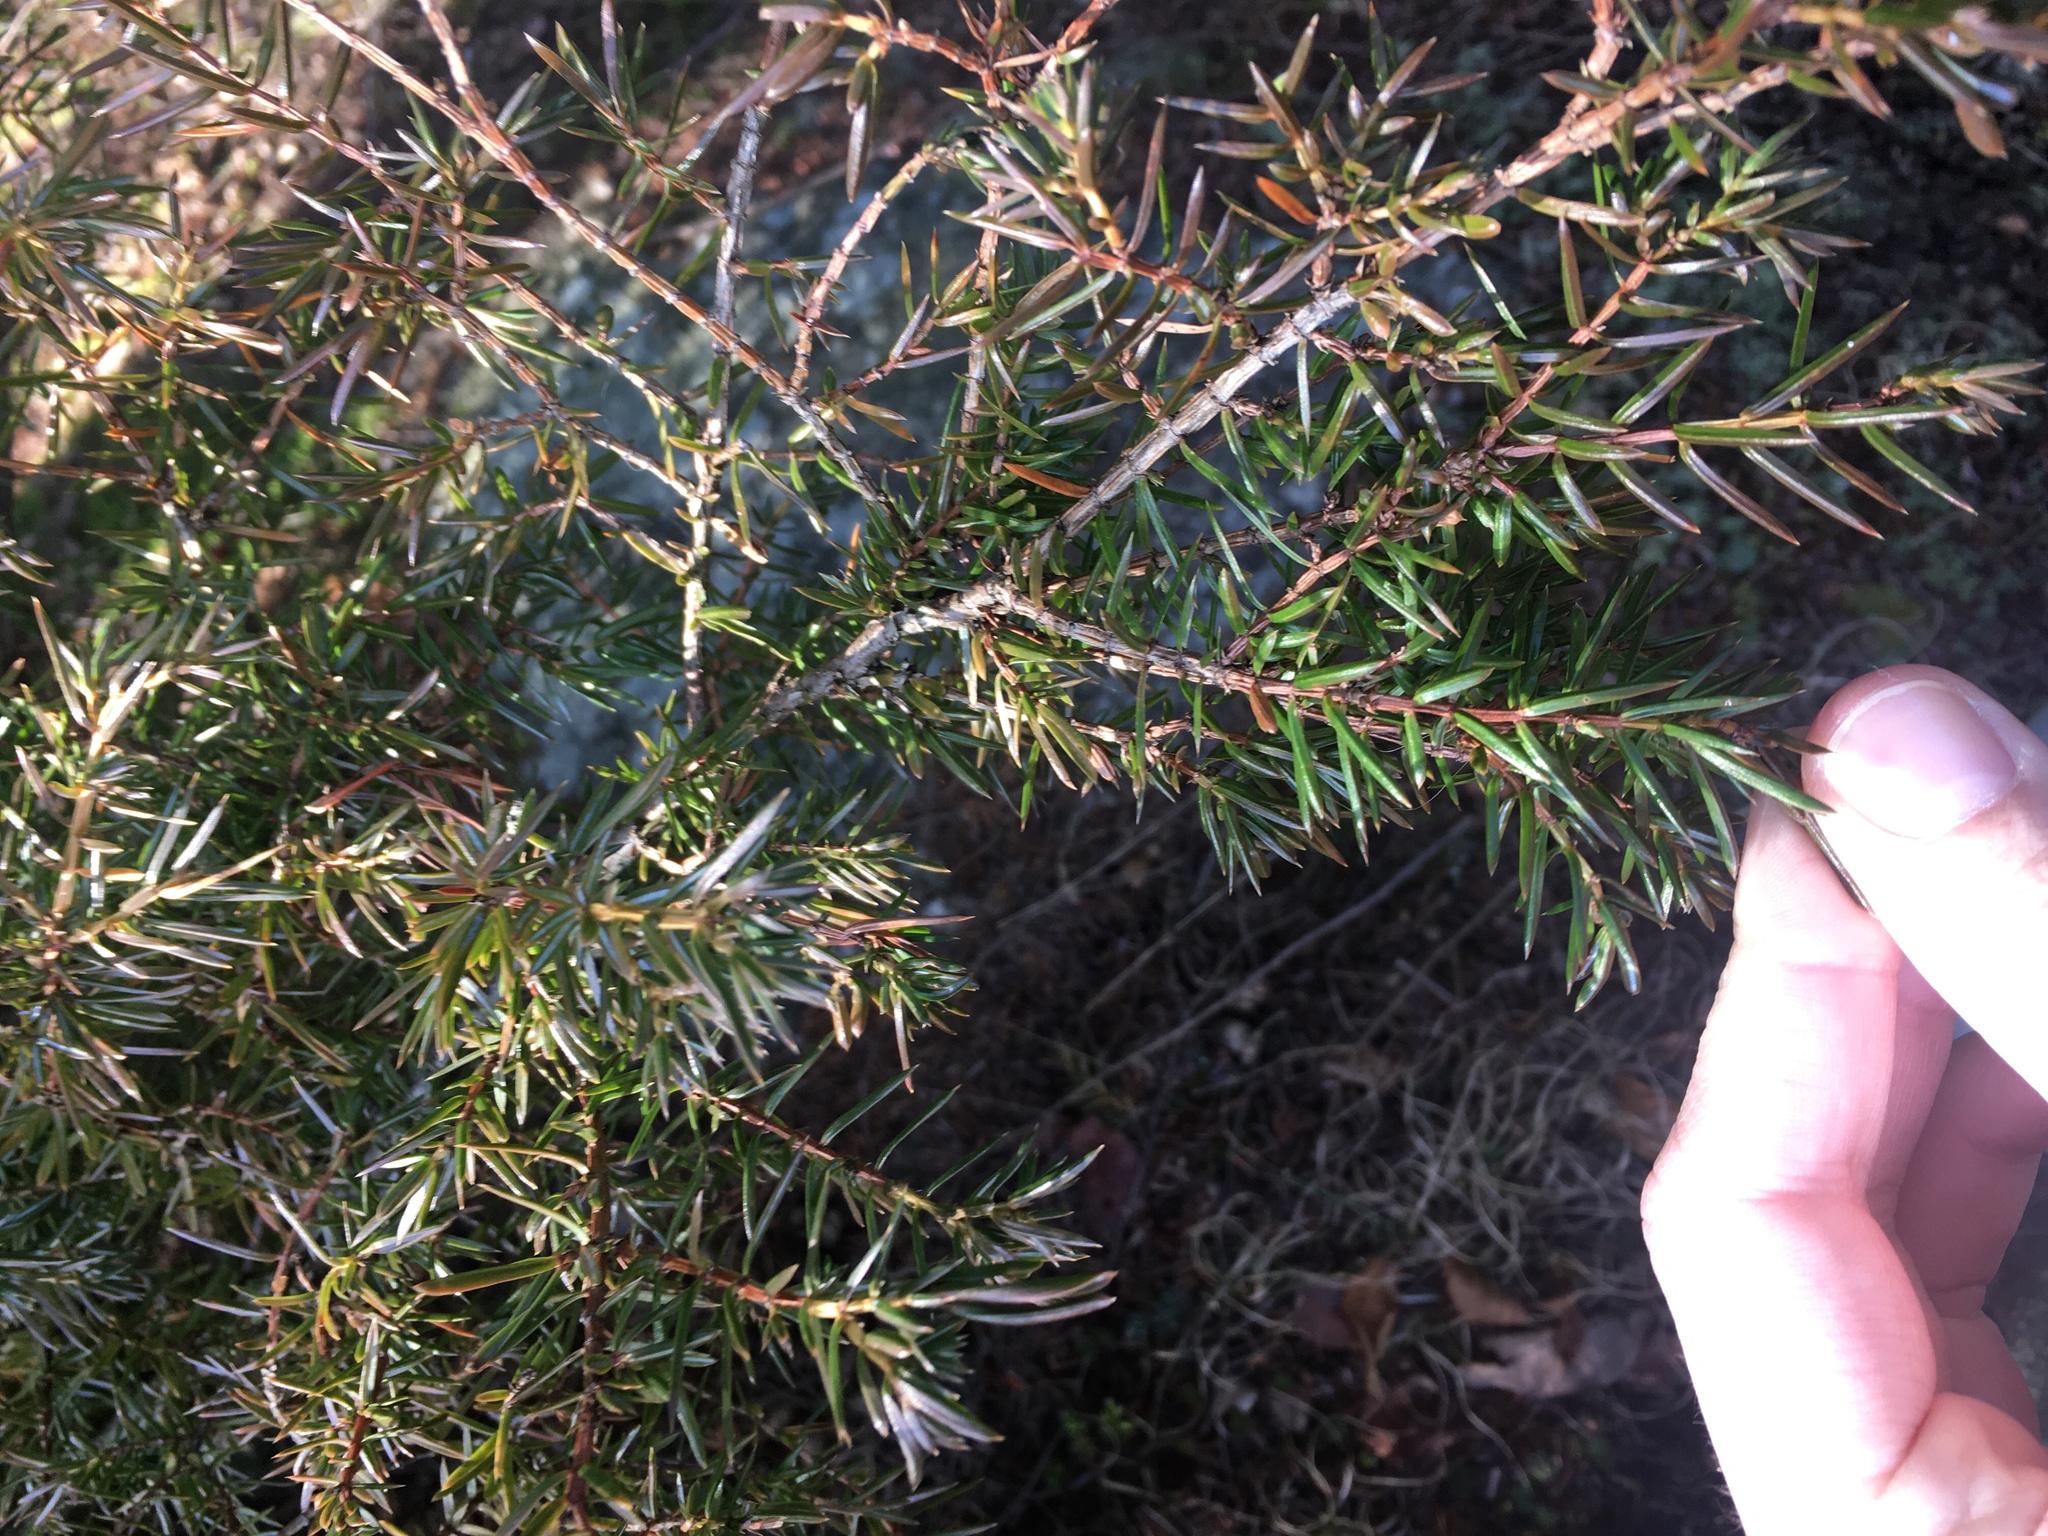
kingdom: Plantae
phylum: Tracheophyta
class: Pinopsida
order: Pinales
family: Cupressaceae
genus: Juniperus
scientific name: Juniperus communis
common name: Common juniper
